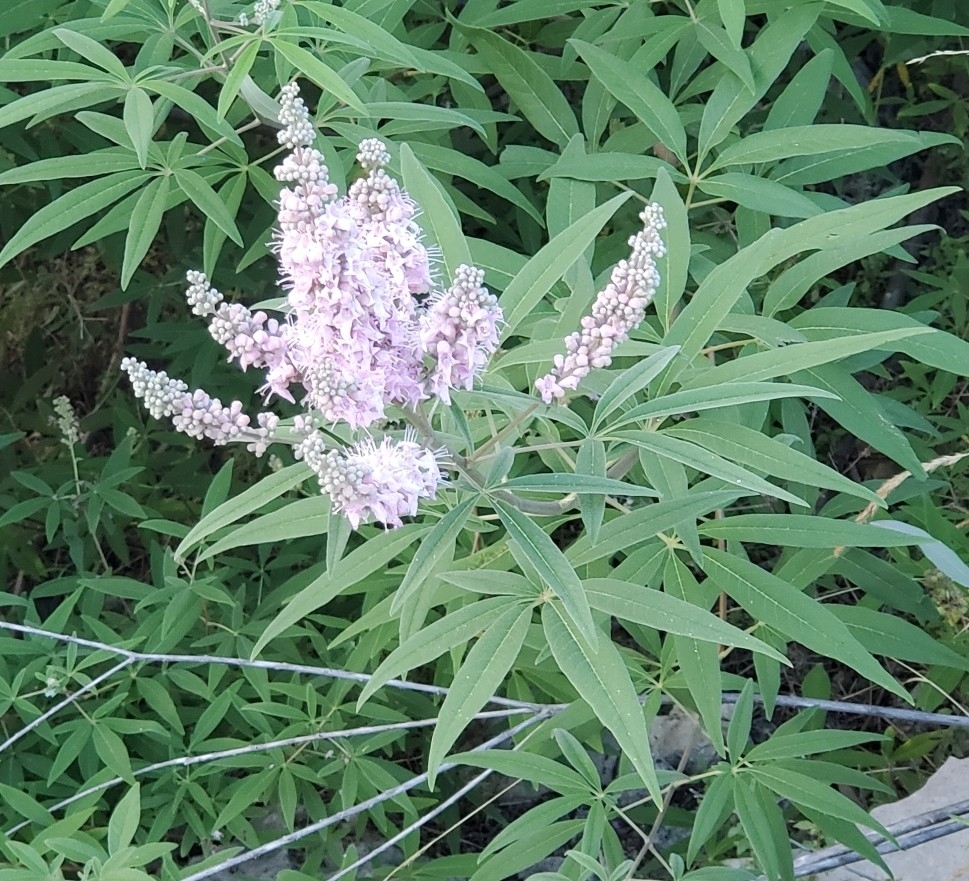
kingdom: Plantae
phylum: Tracheophyta
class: Magnoliopsida
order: Lamiales
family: Lamiaceae
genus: Vitex
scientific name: Vitex agnus-castus
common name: Chasteberry
